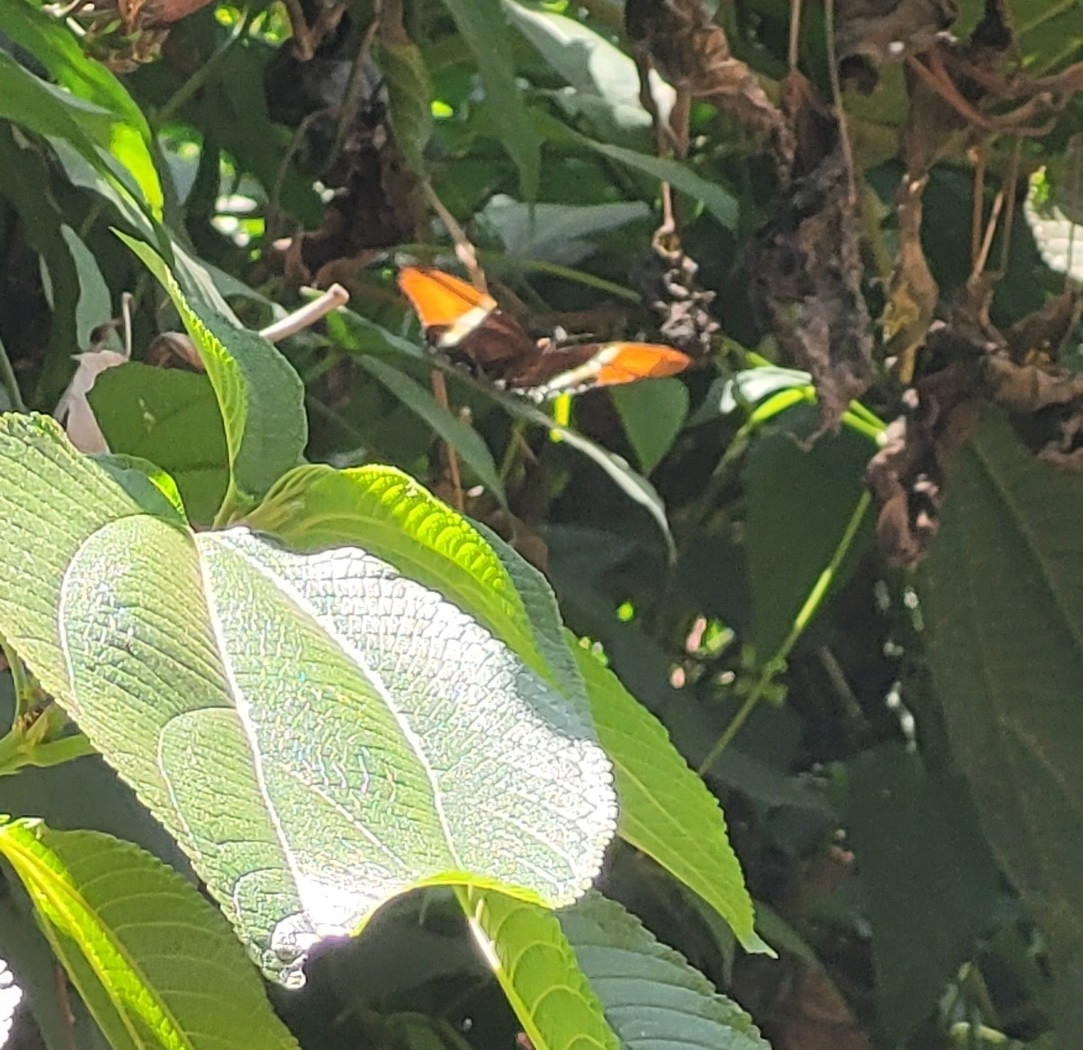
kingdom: Animalia
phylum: Arthropoda
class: Insecta
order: Lepidoptera
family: Nymphalidae
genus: Siproeta
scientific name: Siproeta epaphus
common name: Rusty-tipped page
